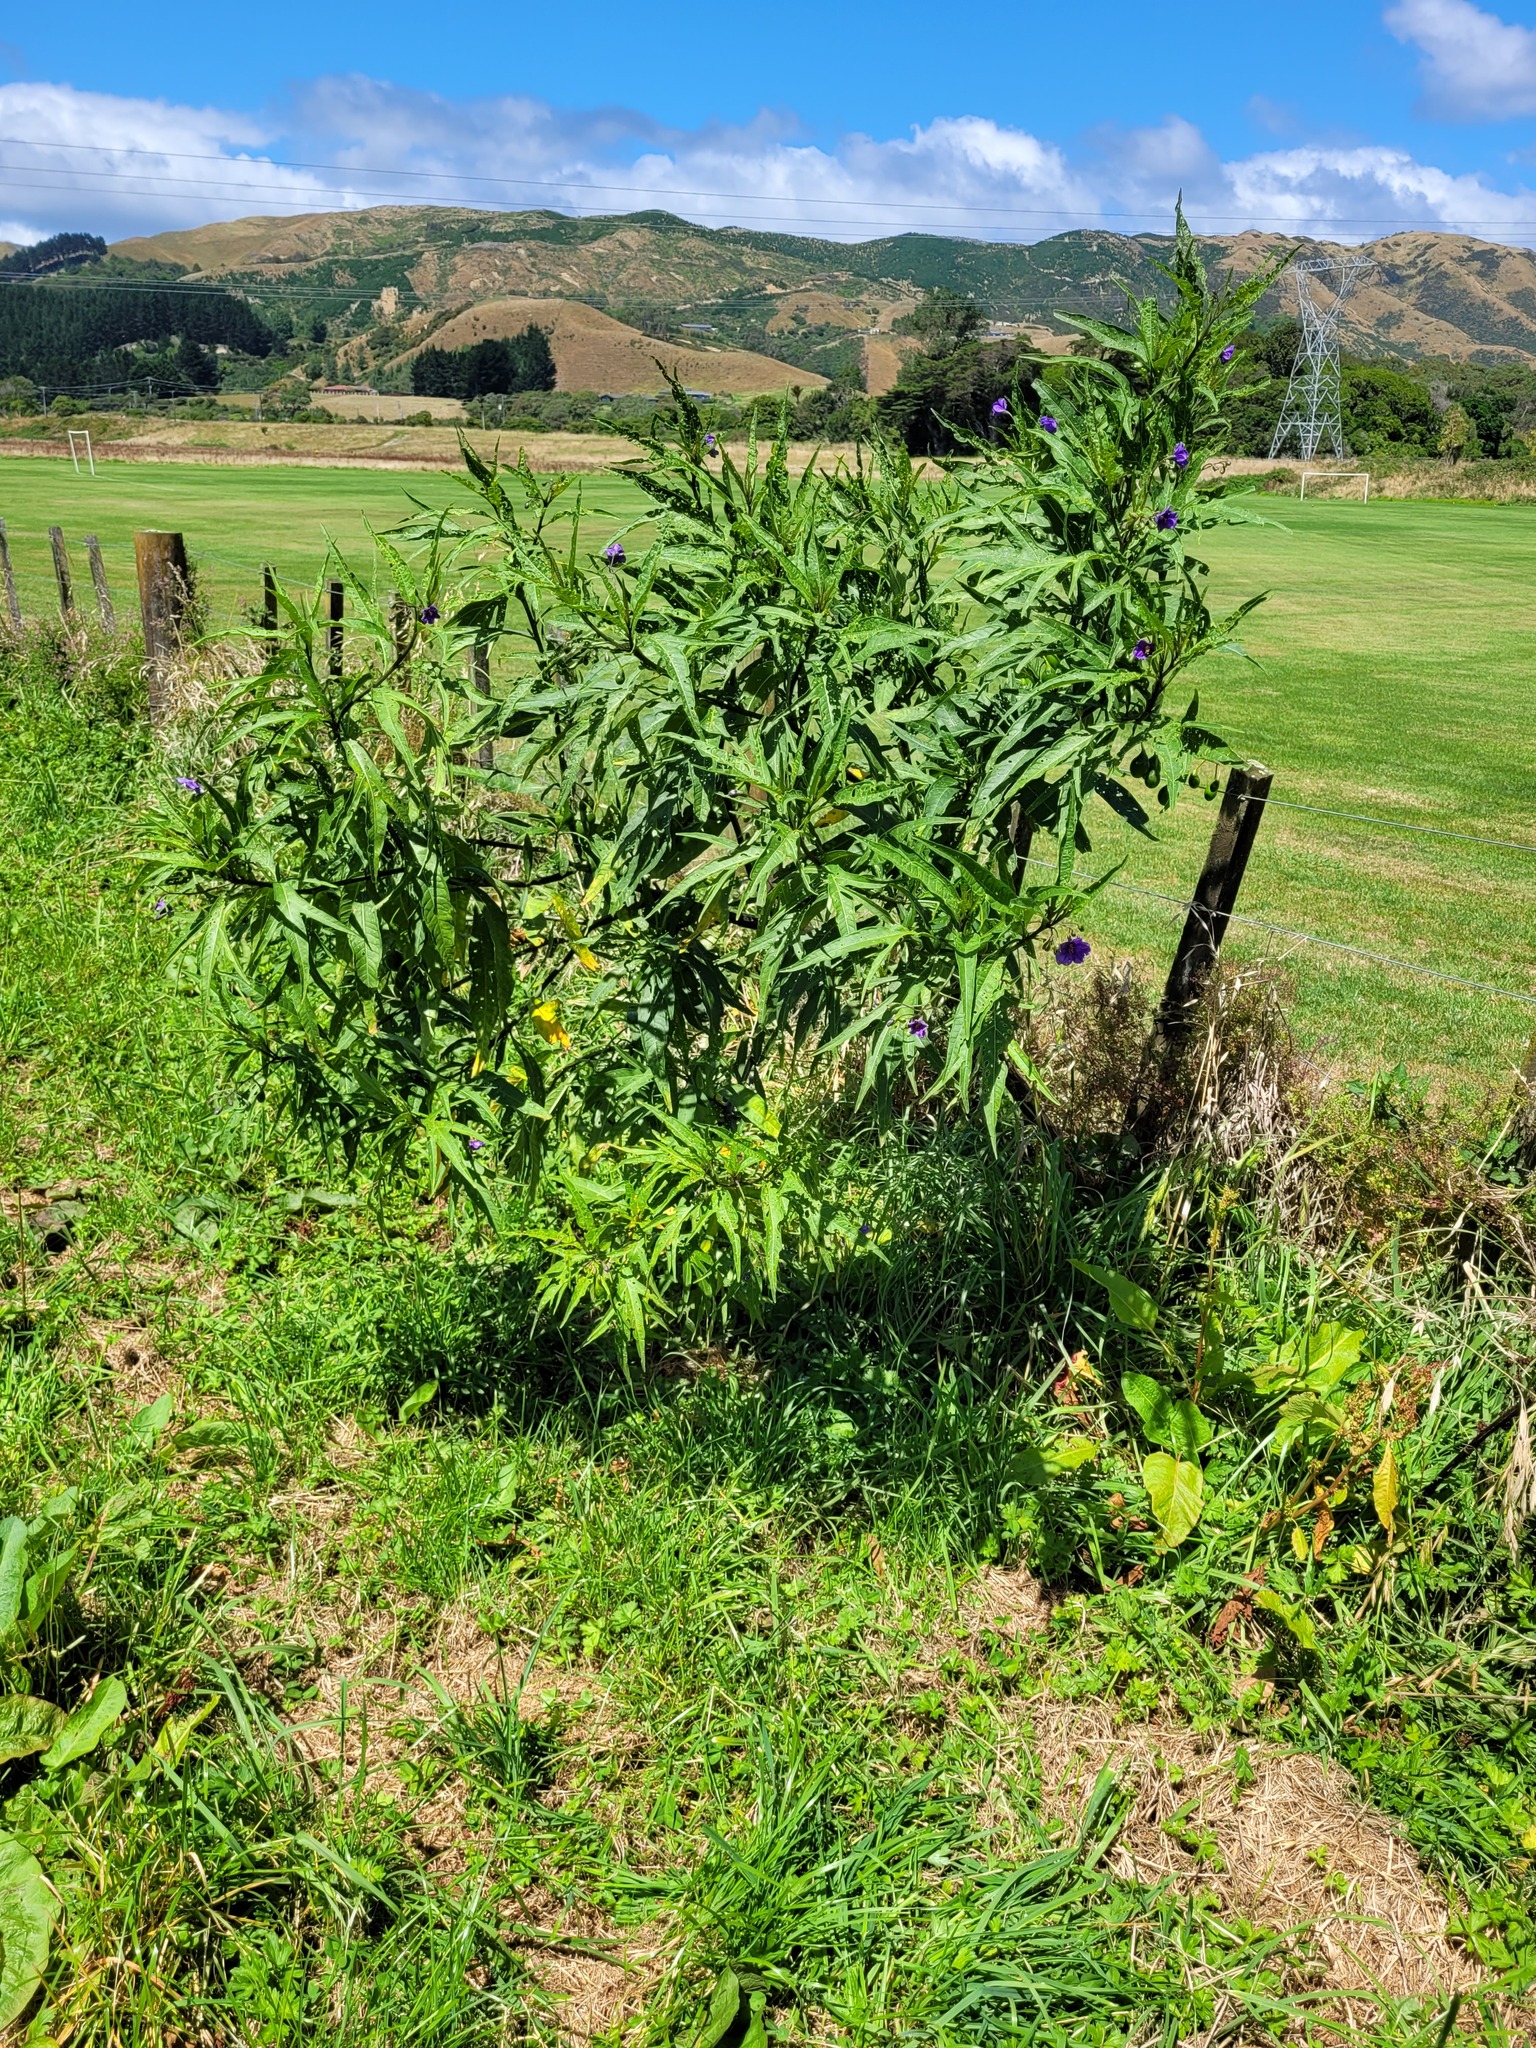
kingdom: Animalia
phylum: Arthropoda
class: Insecta
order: Coleoptera
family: Chrysomelidae
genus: Psylliodes
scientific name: Psylliodes brettinghami
